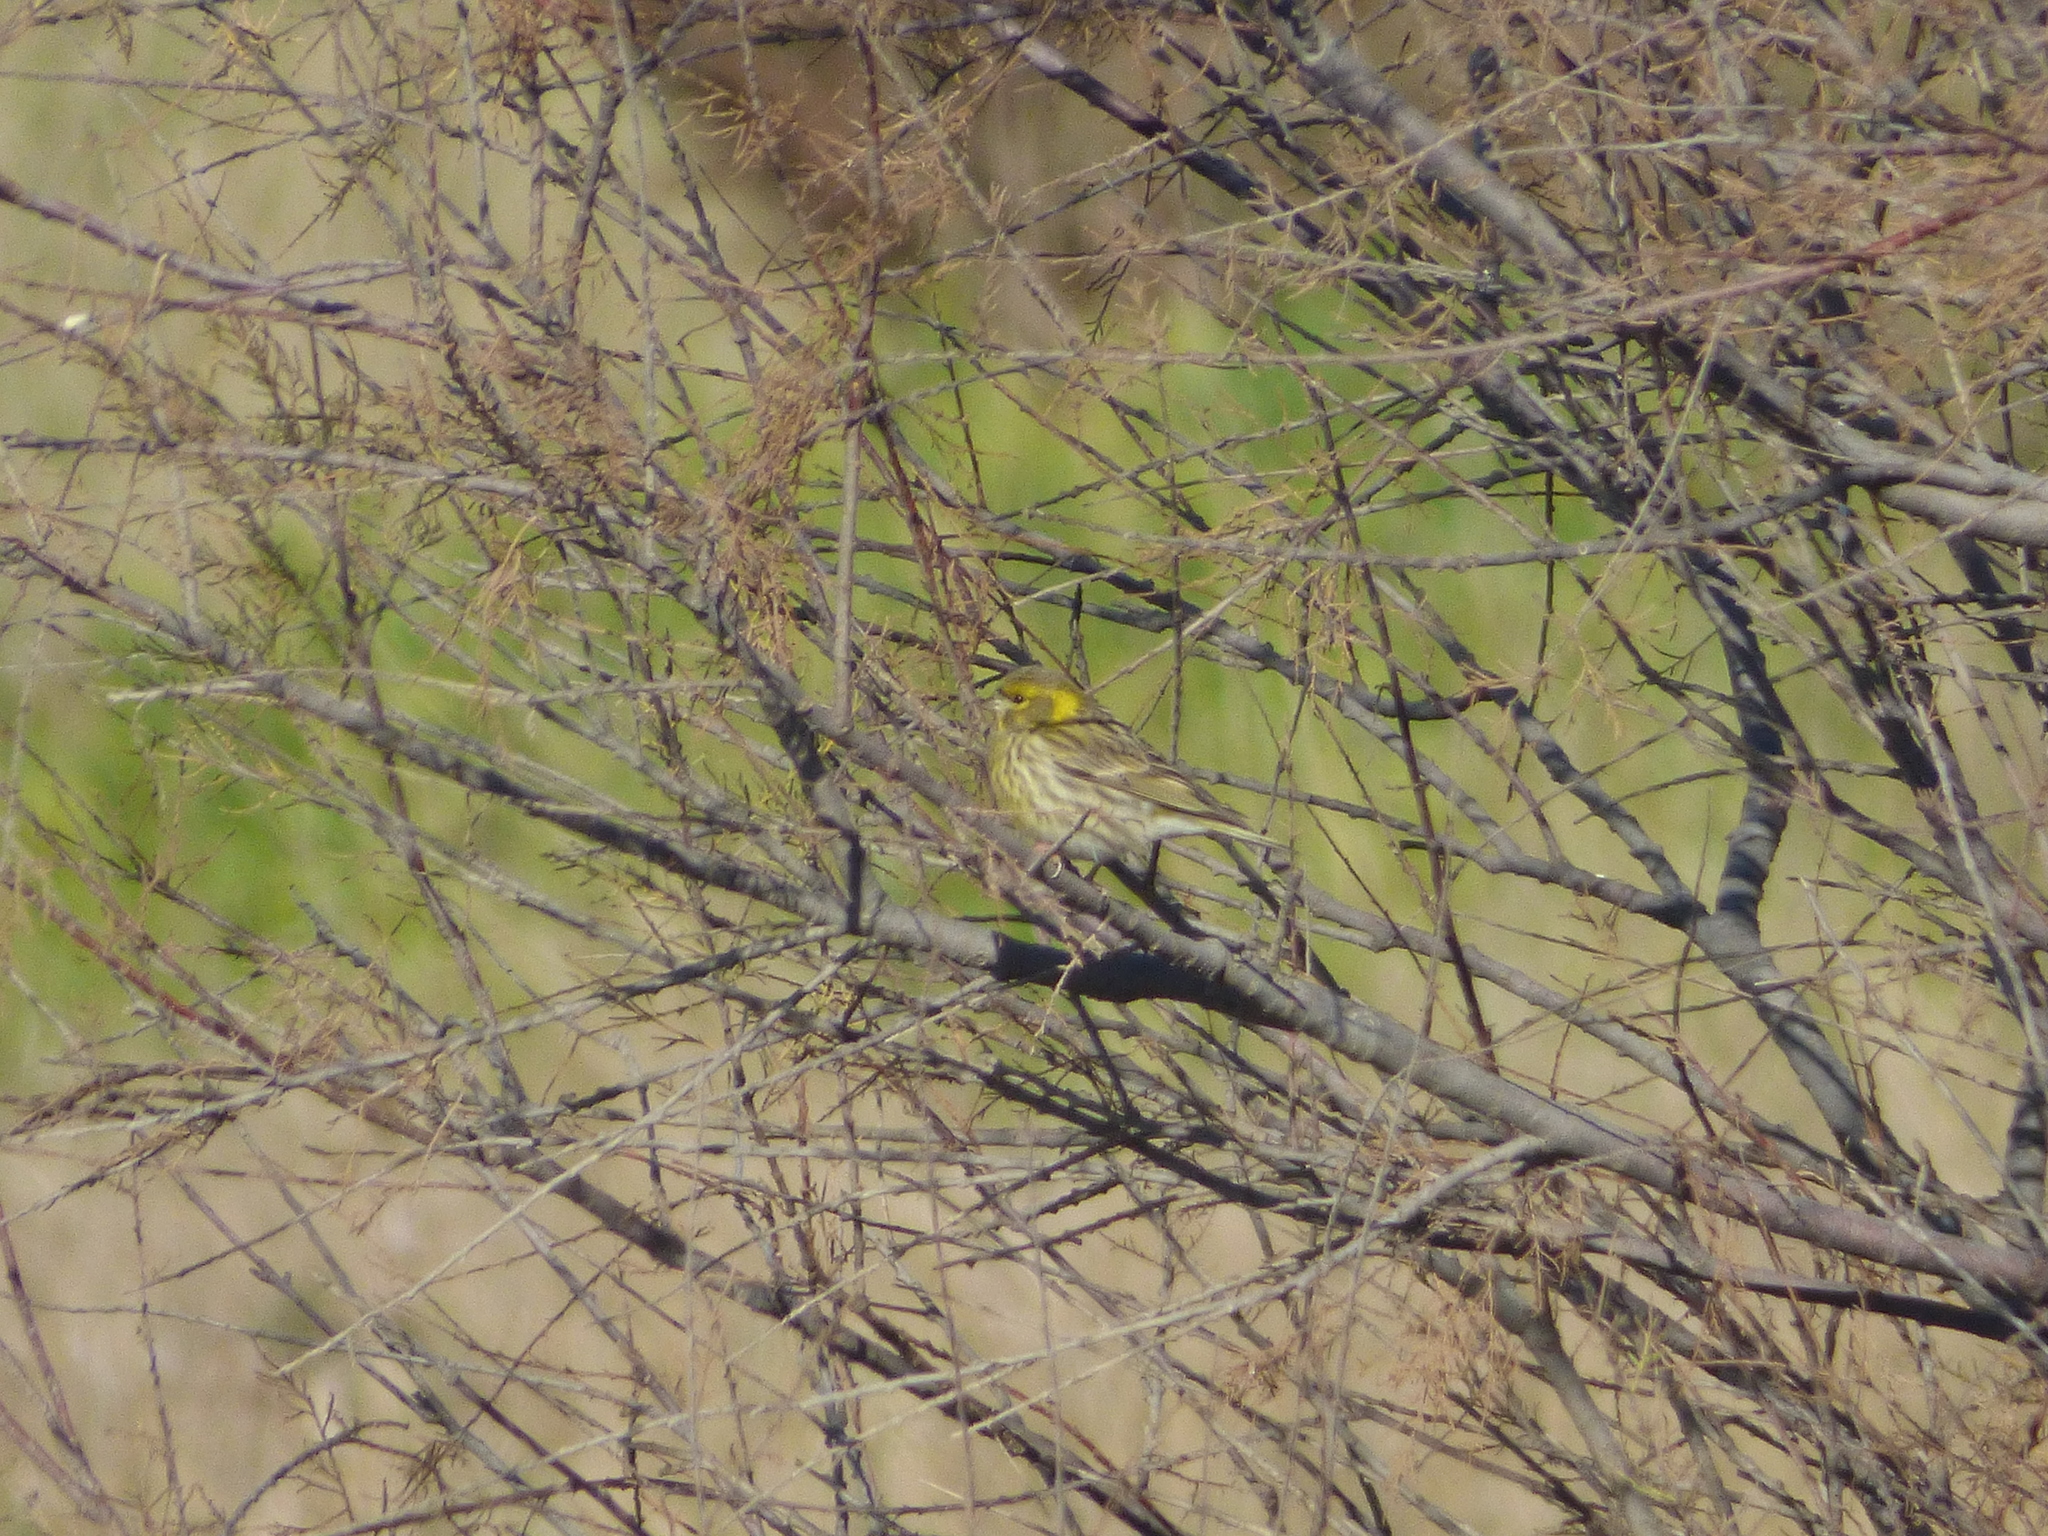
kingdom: Animalia
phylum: Chordata
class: Aves
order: Passeriformes
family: Fringillidae
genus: Serinus
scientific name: Serinus serinus
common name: European serin
